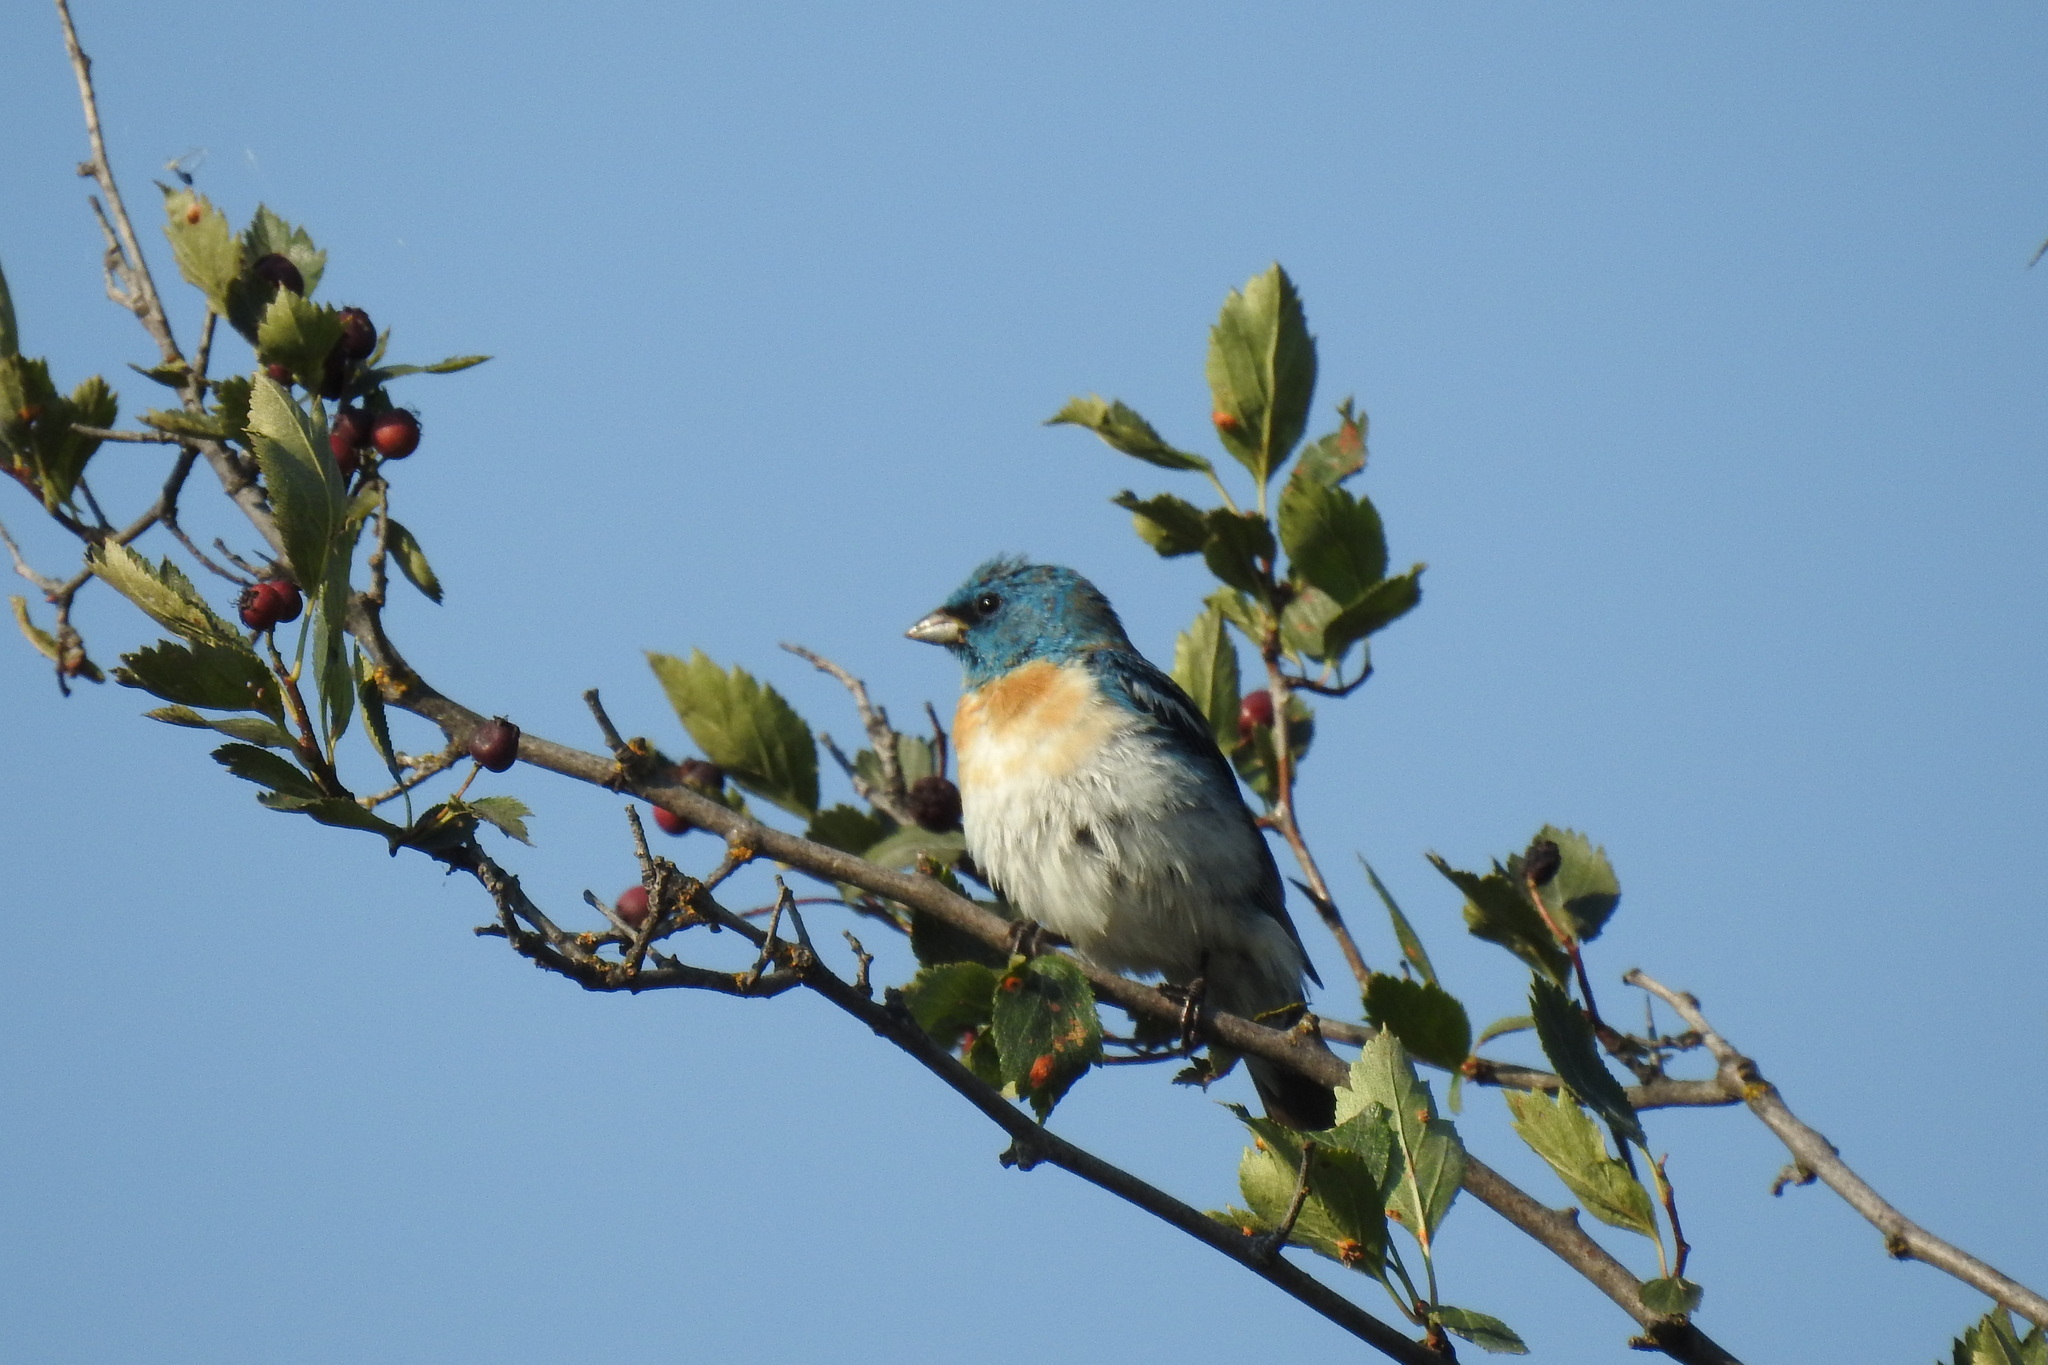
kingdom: Animalia
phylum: Chordata
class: Aves
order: Passeriformes
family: Cardinalidae
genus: Passerina
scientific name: Passerina amoena
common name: Lazuli bunting
